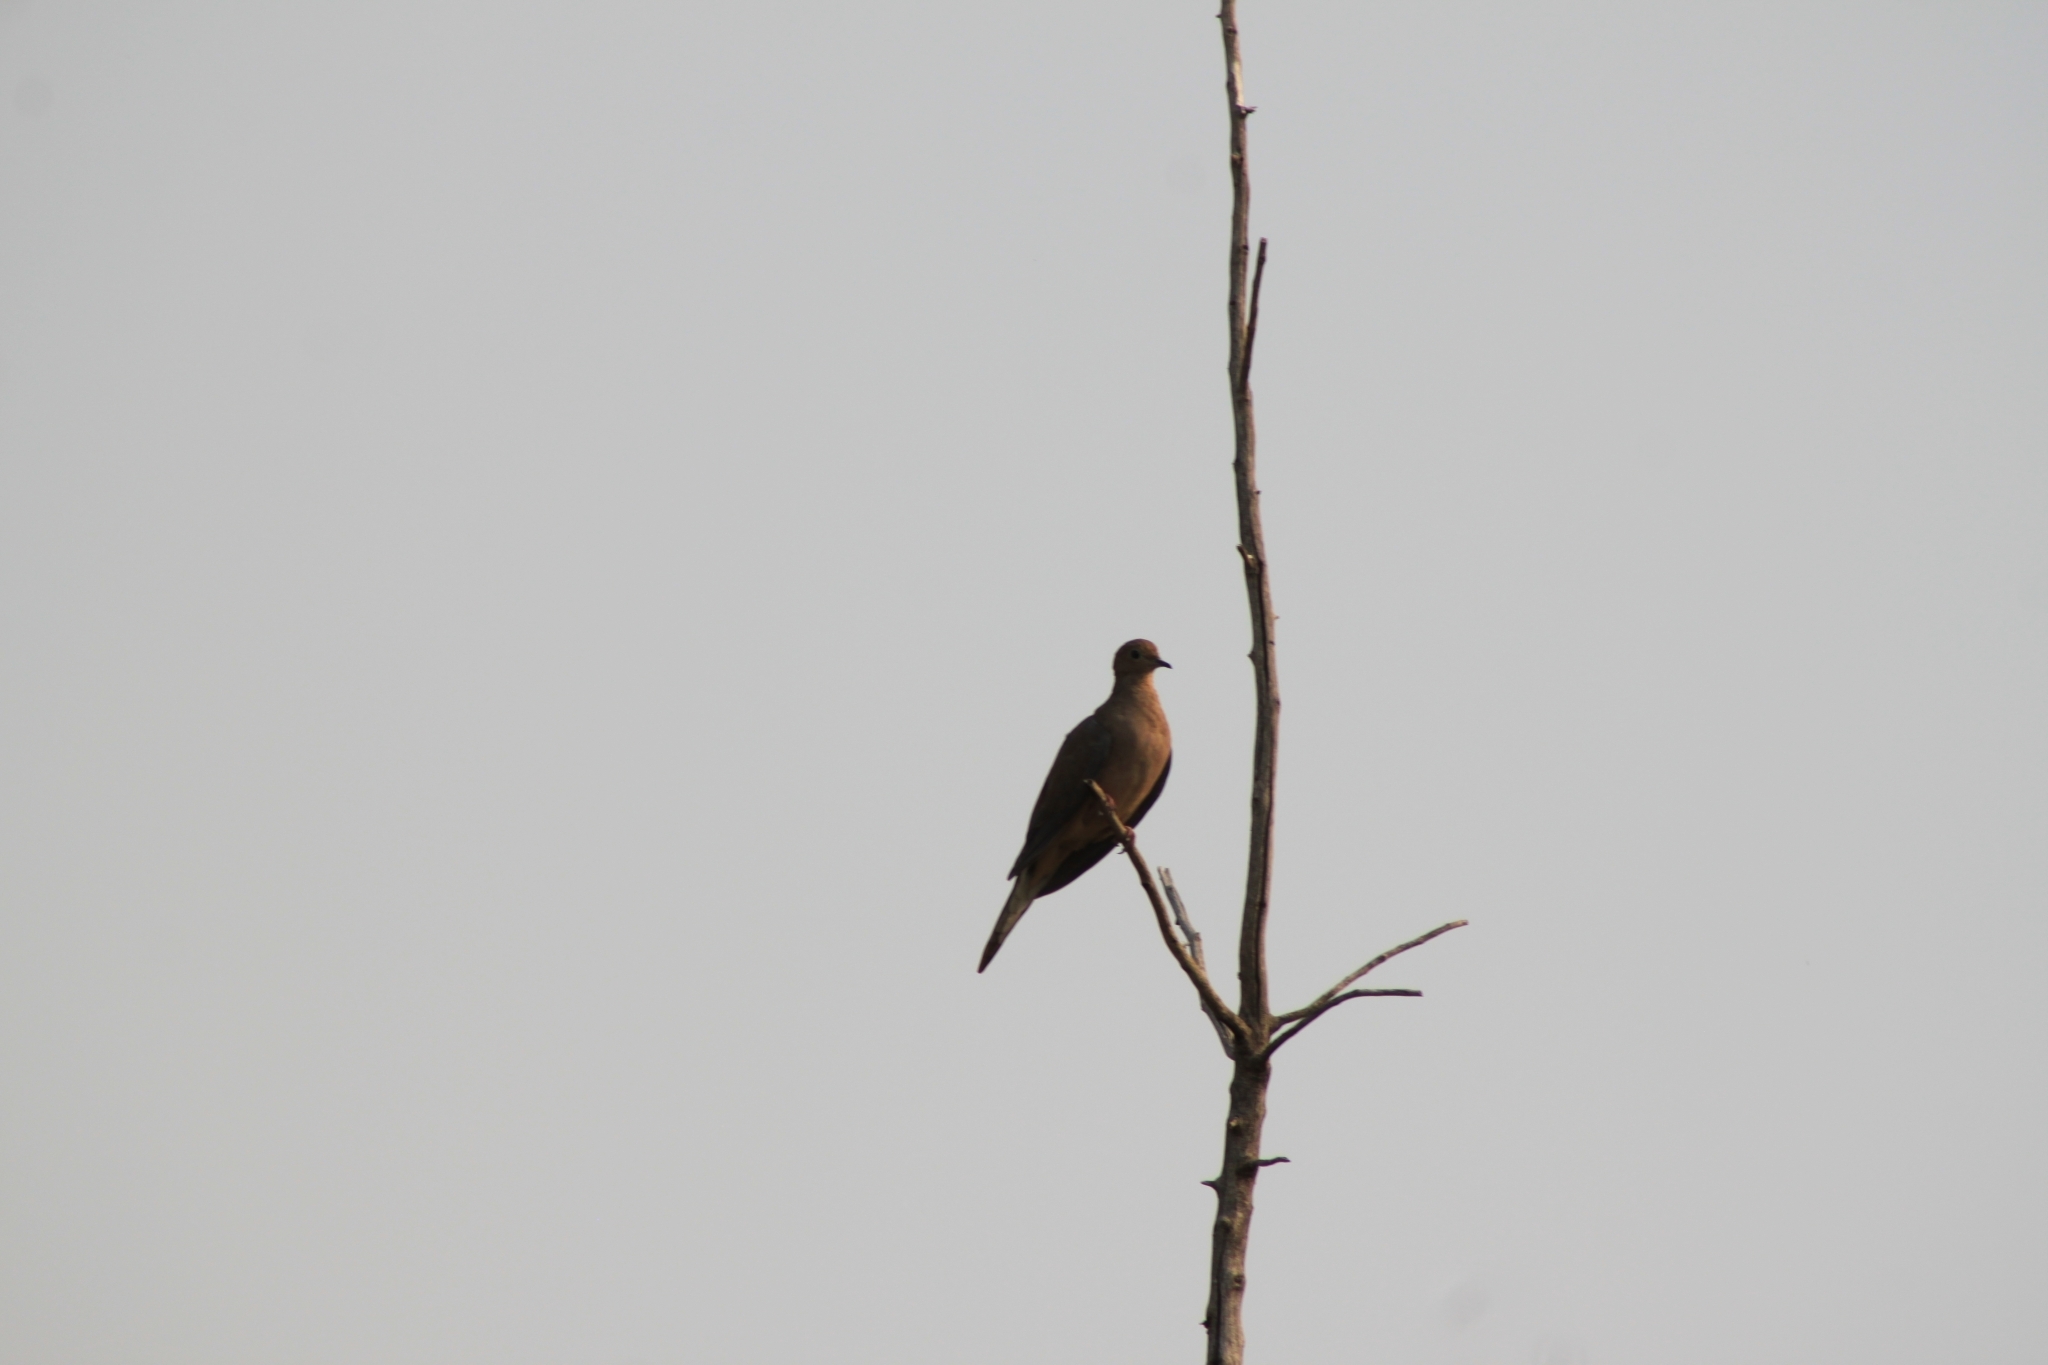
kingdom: Animalia
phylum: Chordata
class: Aves
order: Columbiformes
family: Columbidae
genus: Zenaida
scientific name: Zenaida macroura
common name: Mourning dove
